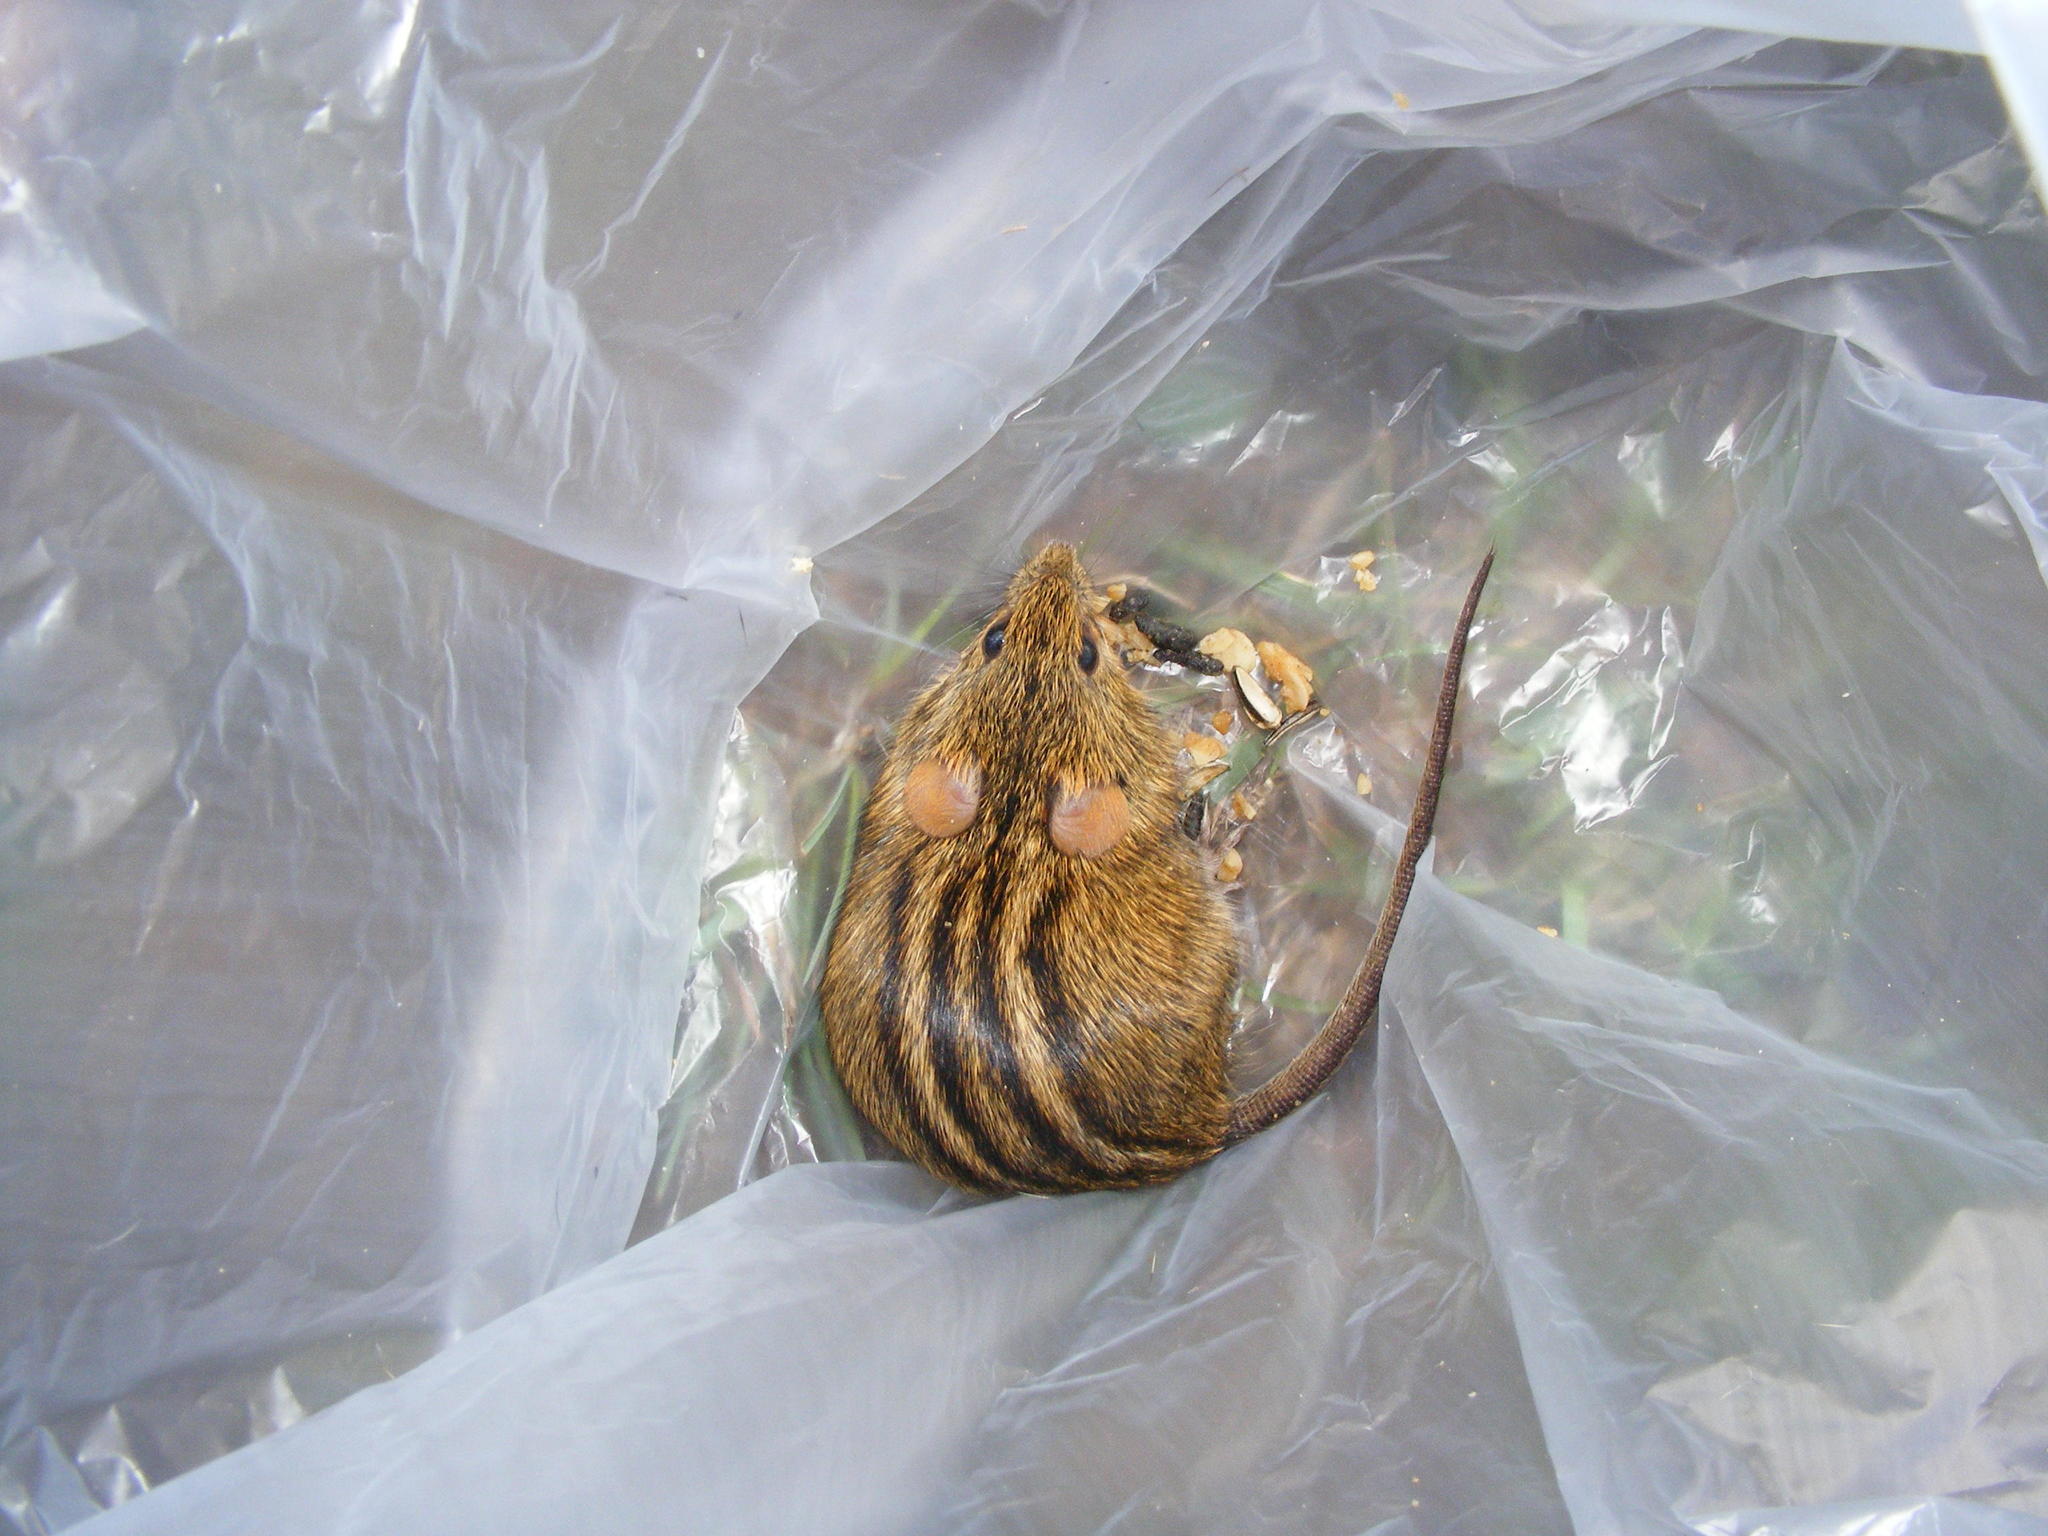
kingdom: Animalia
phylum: Chordata
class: Mammalia
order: Rodentia
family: Muridae
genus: Rhabdomys
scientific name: Rhabdomys dilectus
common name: Mesic four-striped grass rat
